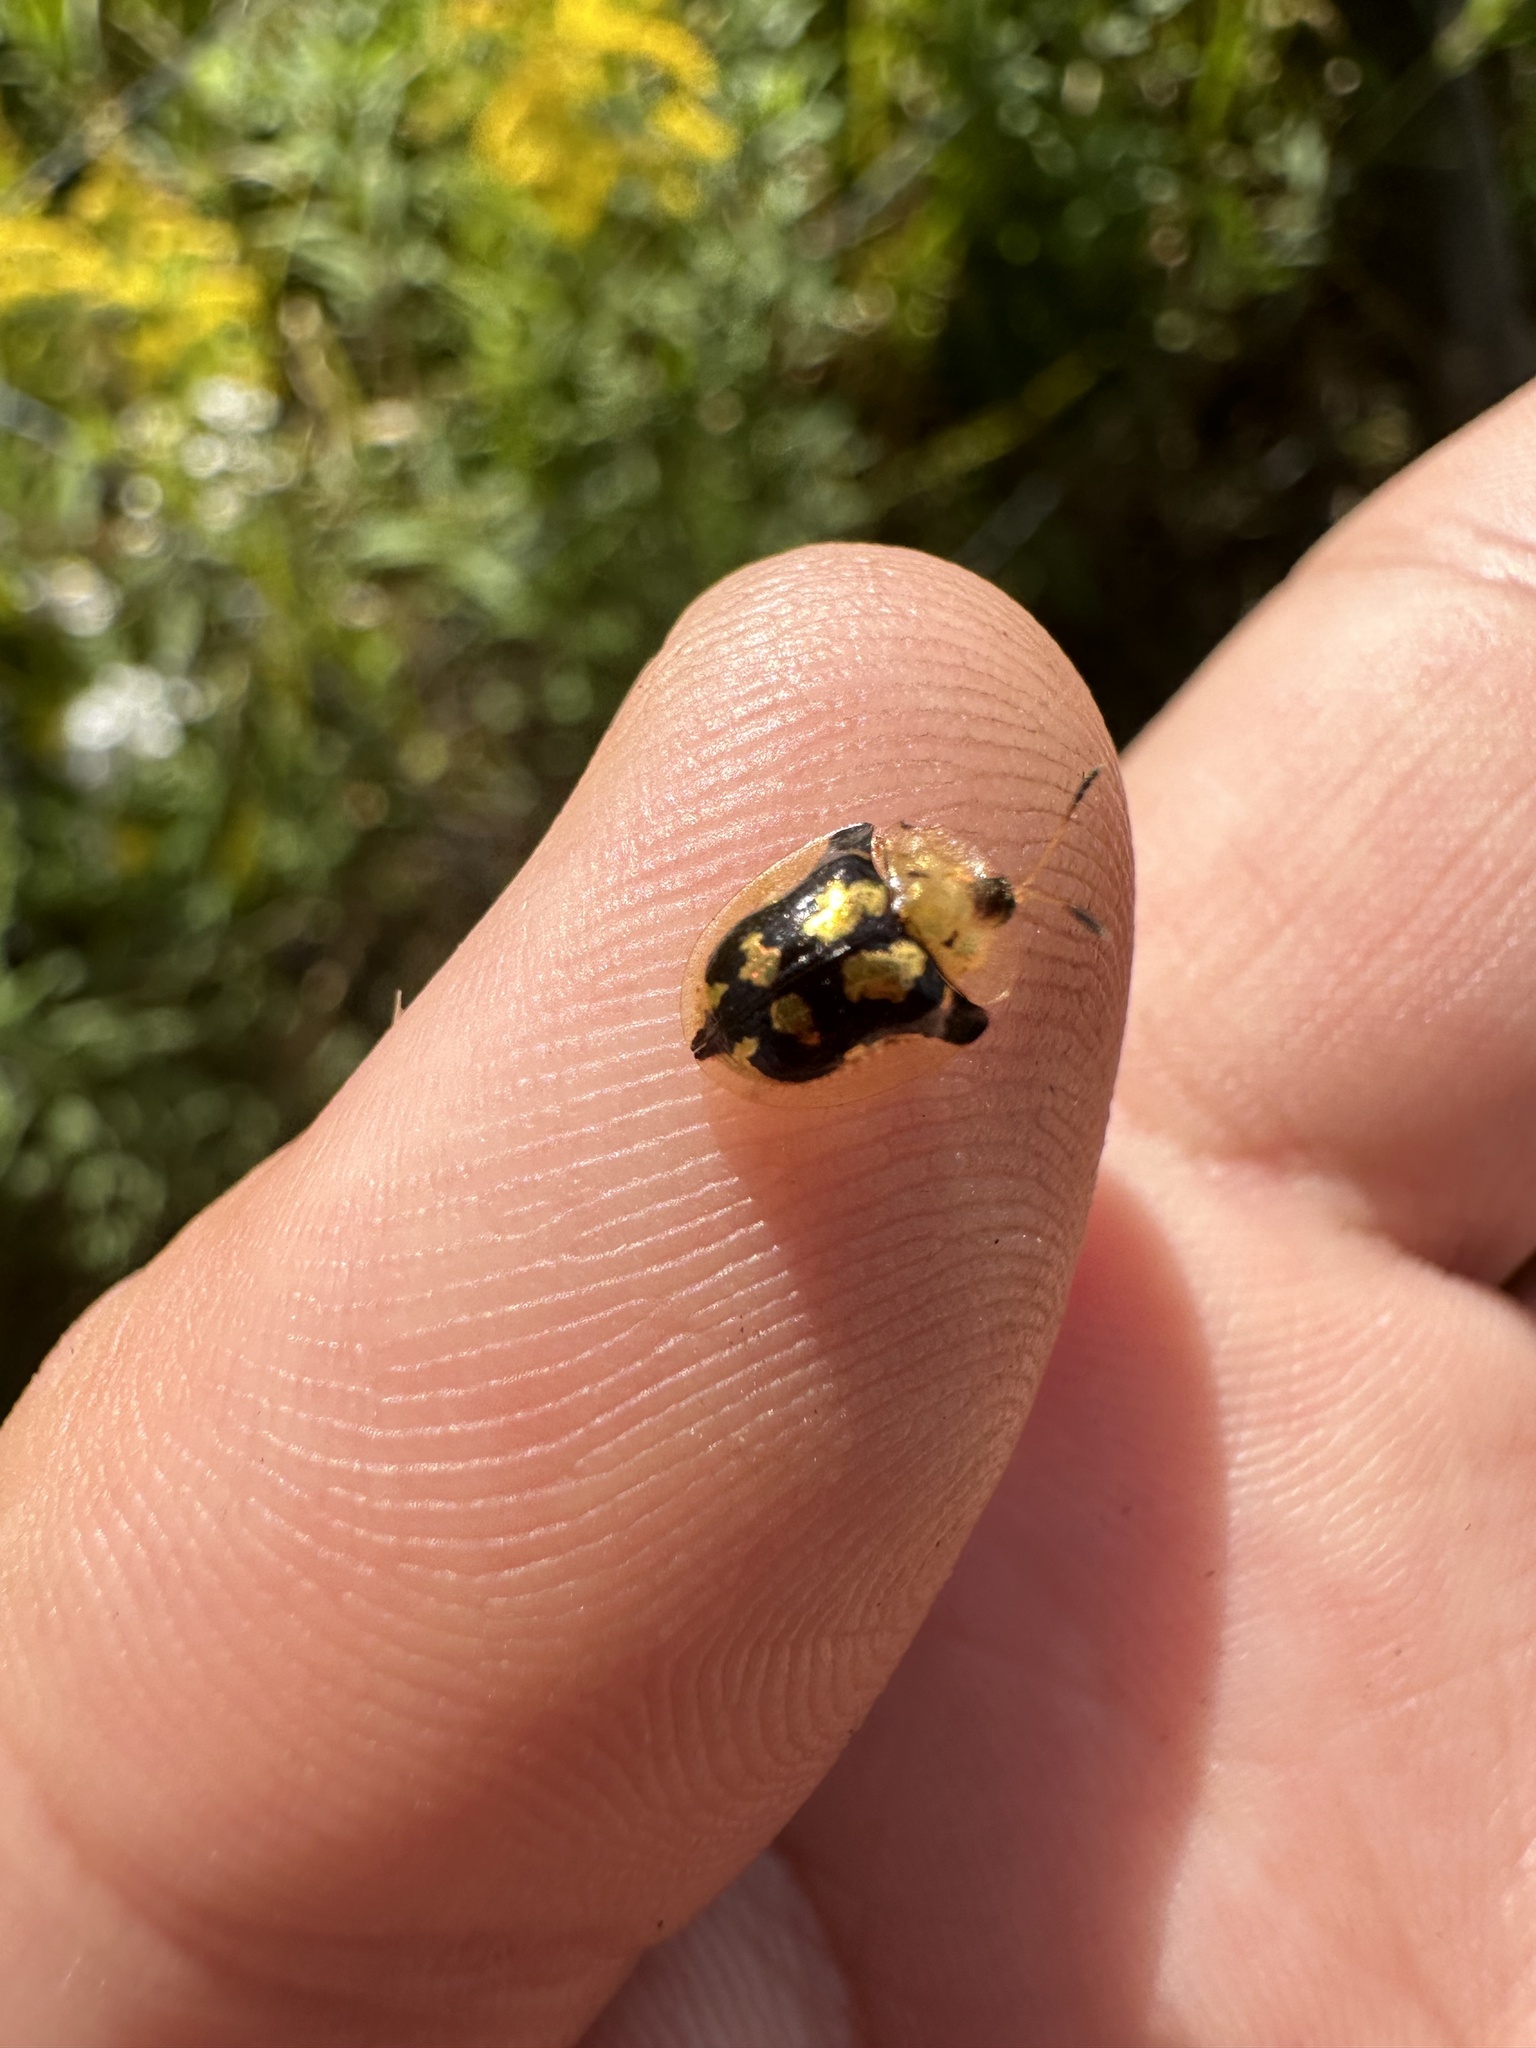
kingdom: Animalia
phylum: Arthropoda
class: Insecta
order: Coleoptera
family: Chrysomelidae
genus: Deloyala
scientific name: Deloyala guttata
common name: Mottled tortoise beetle
